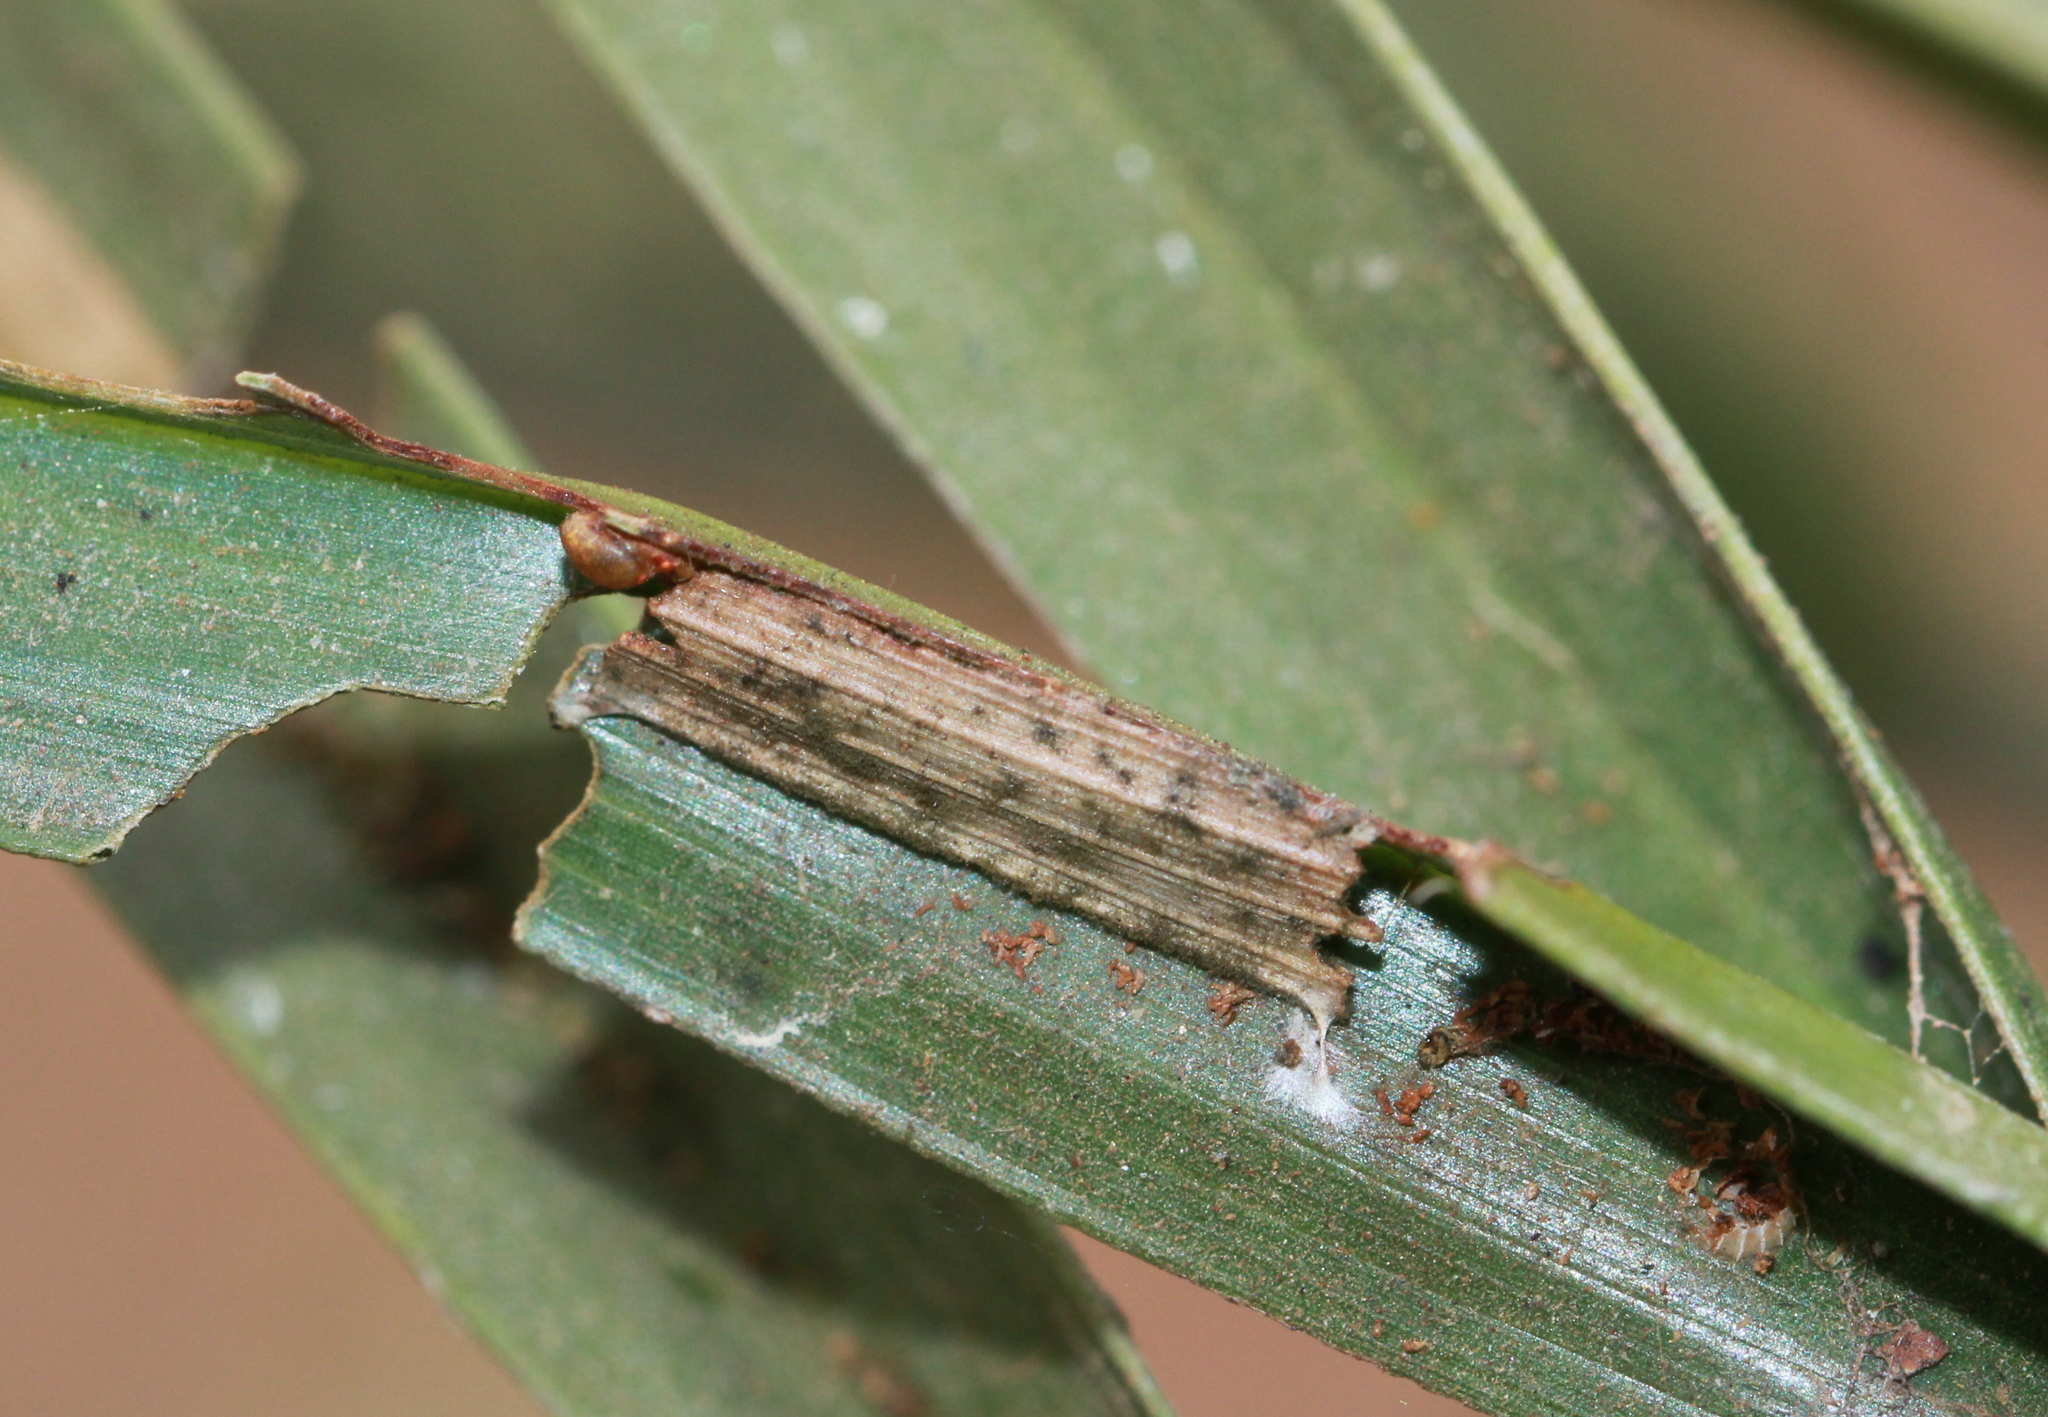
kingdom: Animalia
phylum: Arthropoda
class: Insecta
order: Lepidoptera
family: Hesperiidae
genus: Suastus
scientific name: Suastus gremius
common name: Indian palm bob
